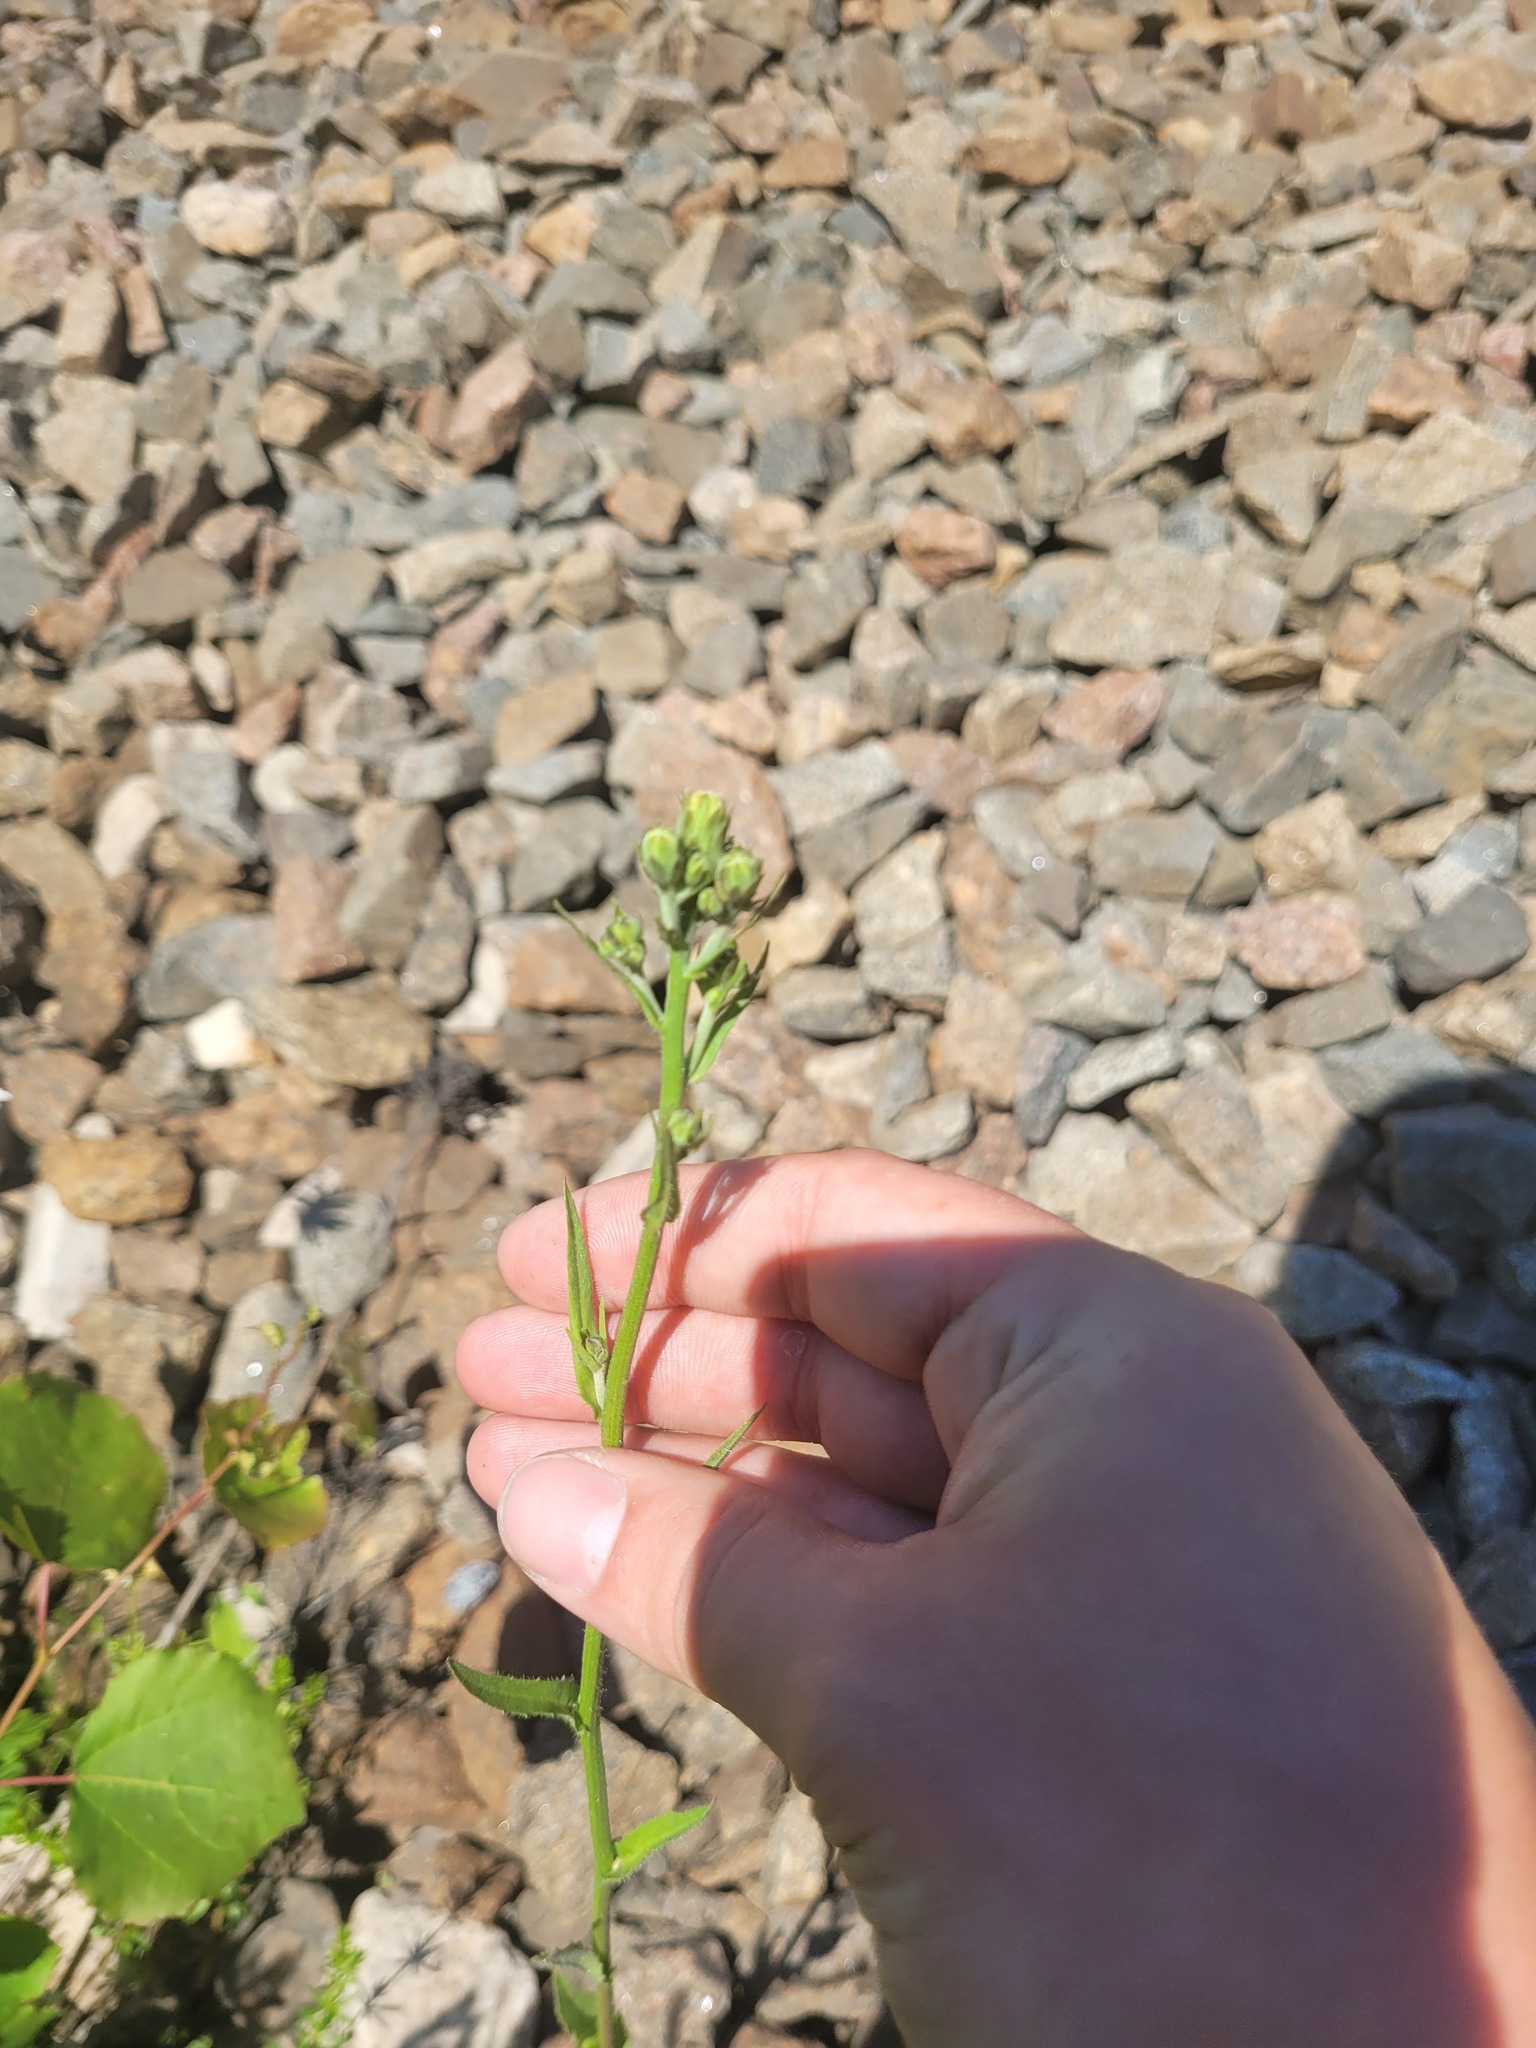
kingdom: Plantae
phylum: Tracheophyta
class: Magnoliopsida
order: Asterales
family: Asteraceae
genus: Picris
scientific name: Picris hieracioides
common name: Hawkweed oxtongue
